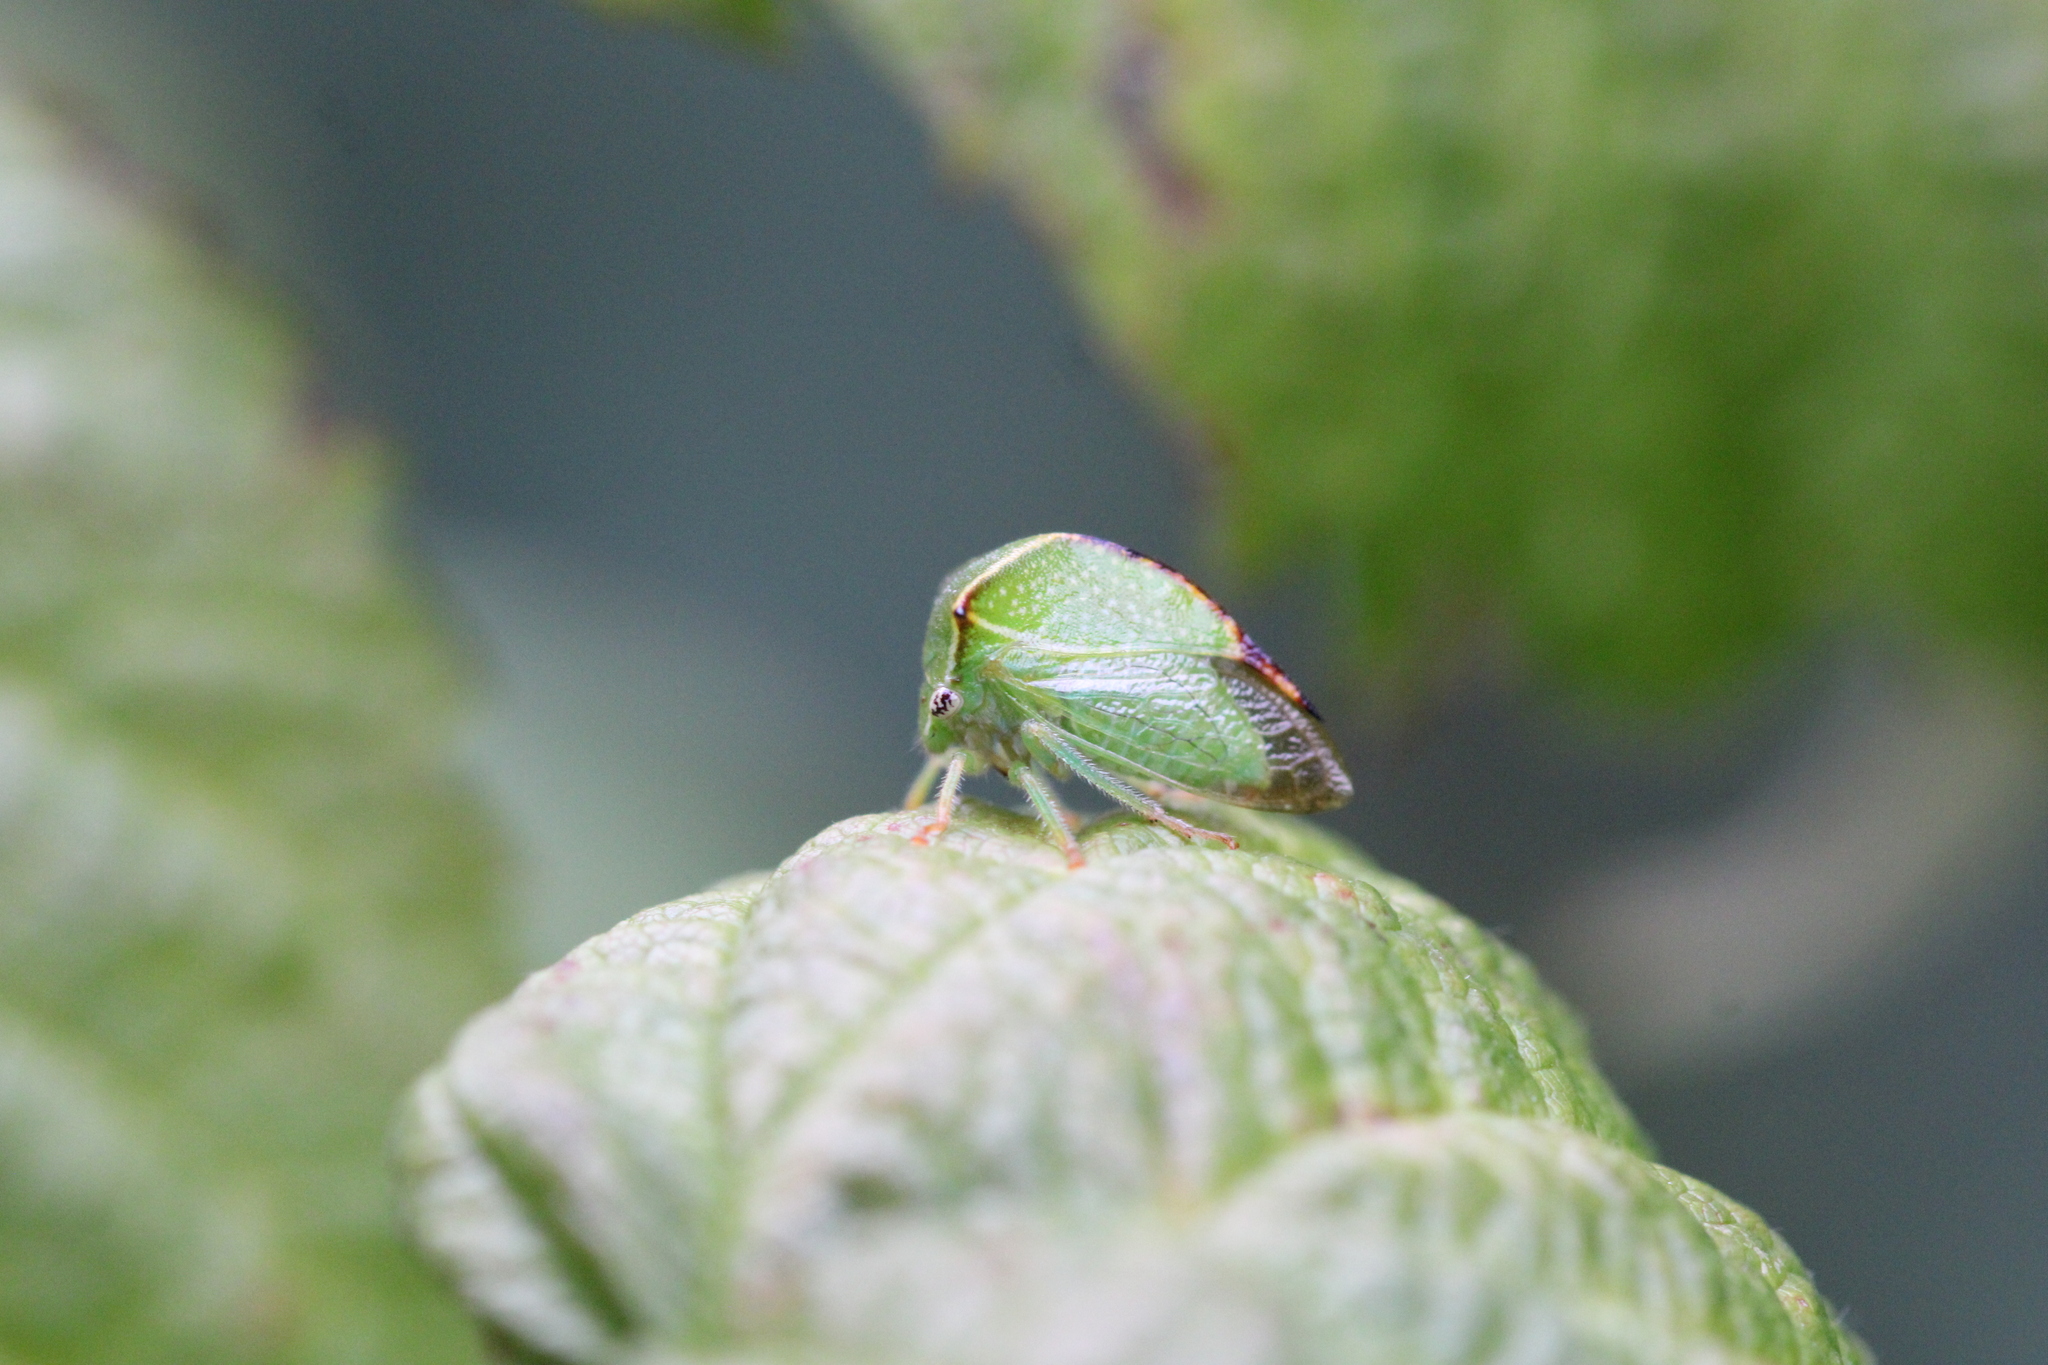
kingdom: Animalia
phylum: Arthropoda
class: Insecta
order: Hemiptera
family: Membracidae
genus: Stictocephala
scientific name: Stictocephala bisonia
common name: American buffalo treehopper
